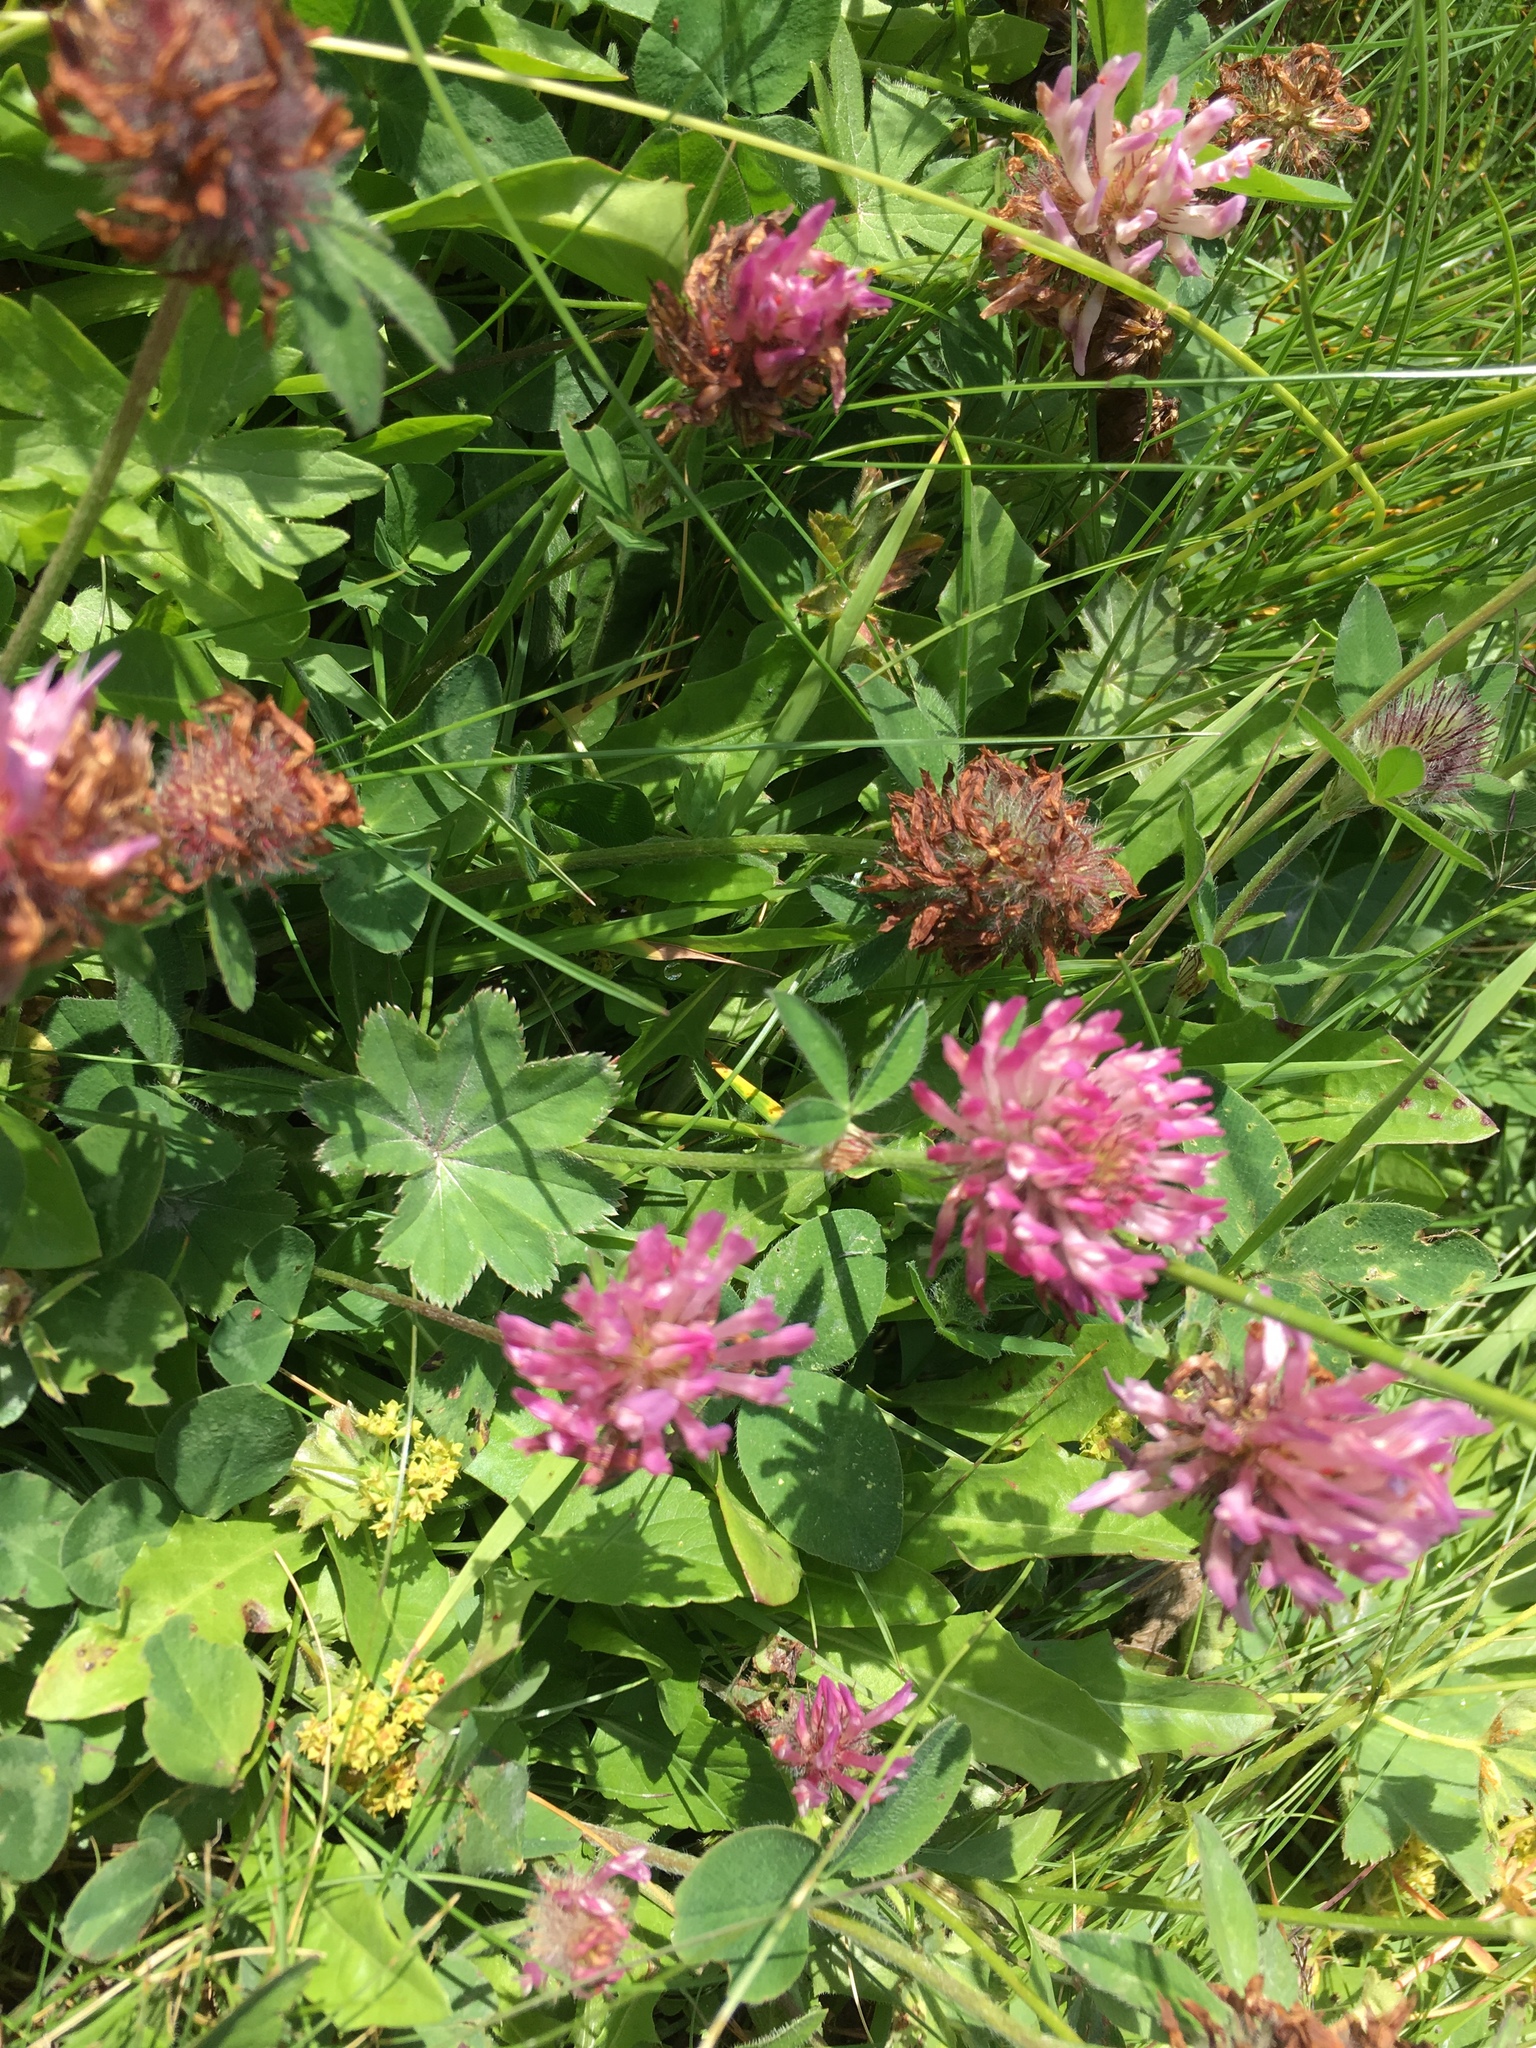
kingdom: Plantae
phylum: Tracheophyta
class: Magnoliopsida
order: Fabales
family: Fabaceae
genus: Trifolium
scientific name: Trifolium pratense
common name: Red clover
